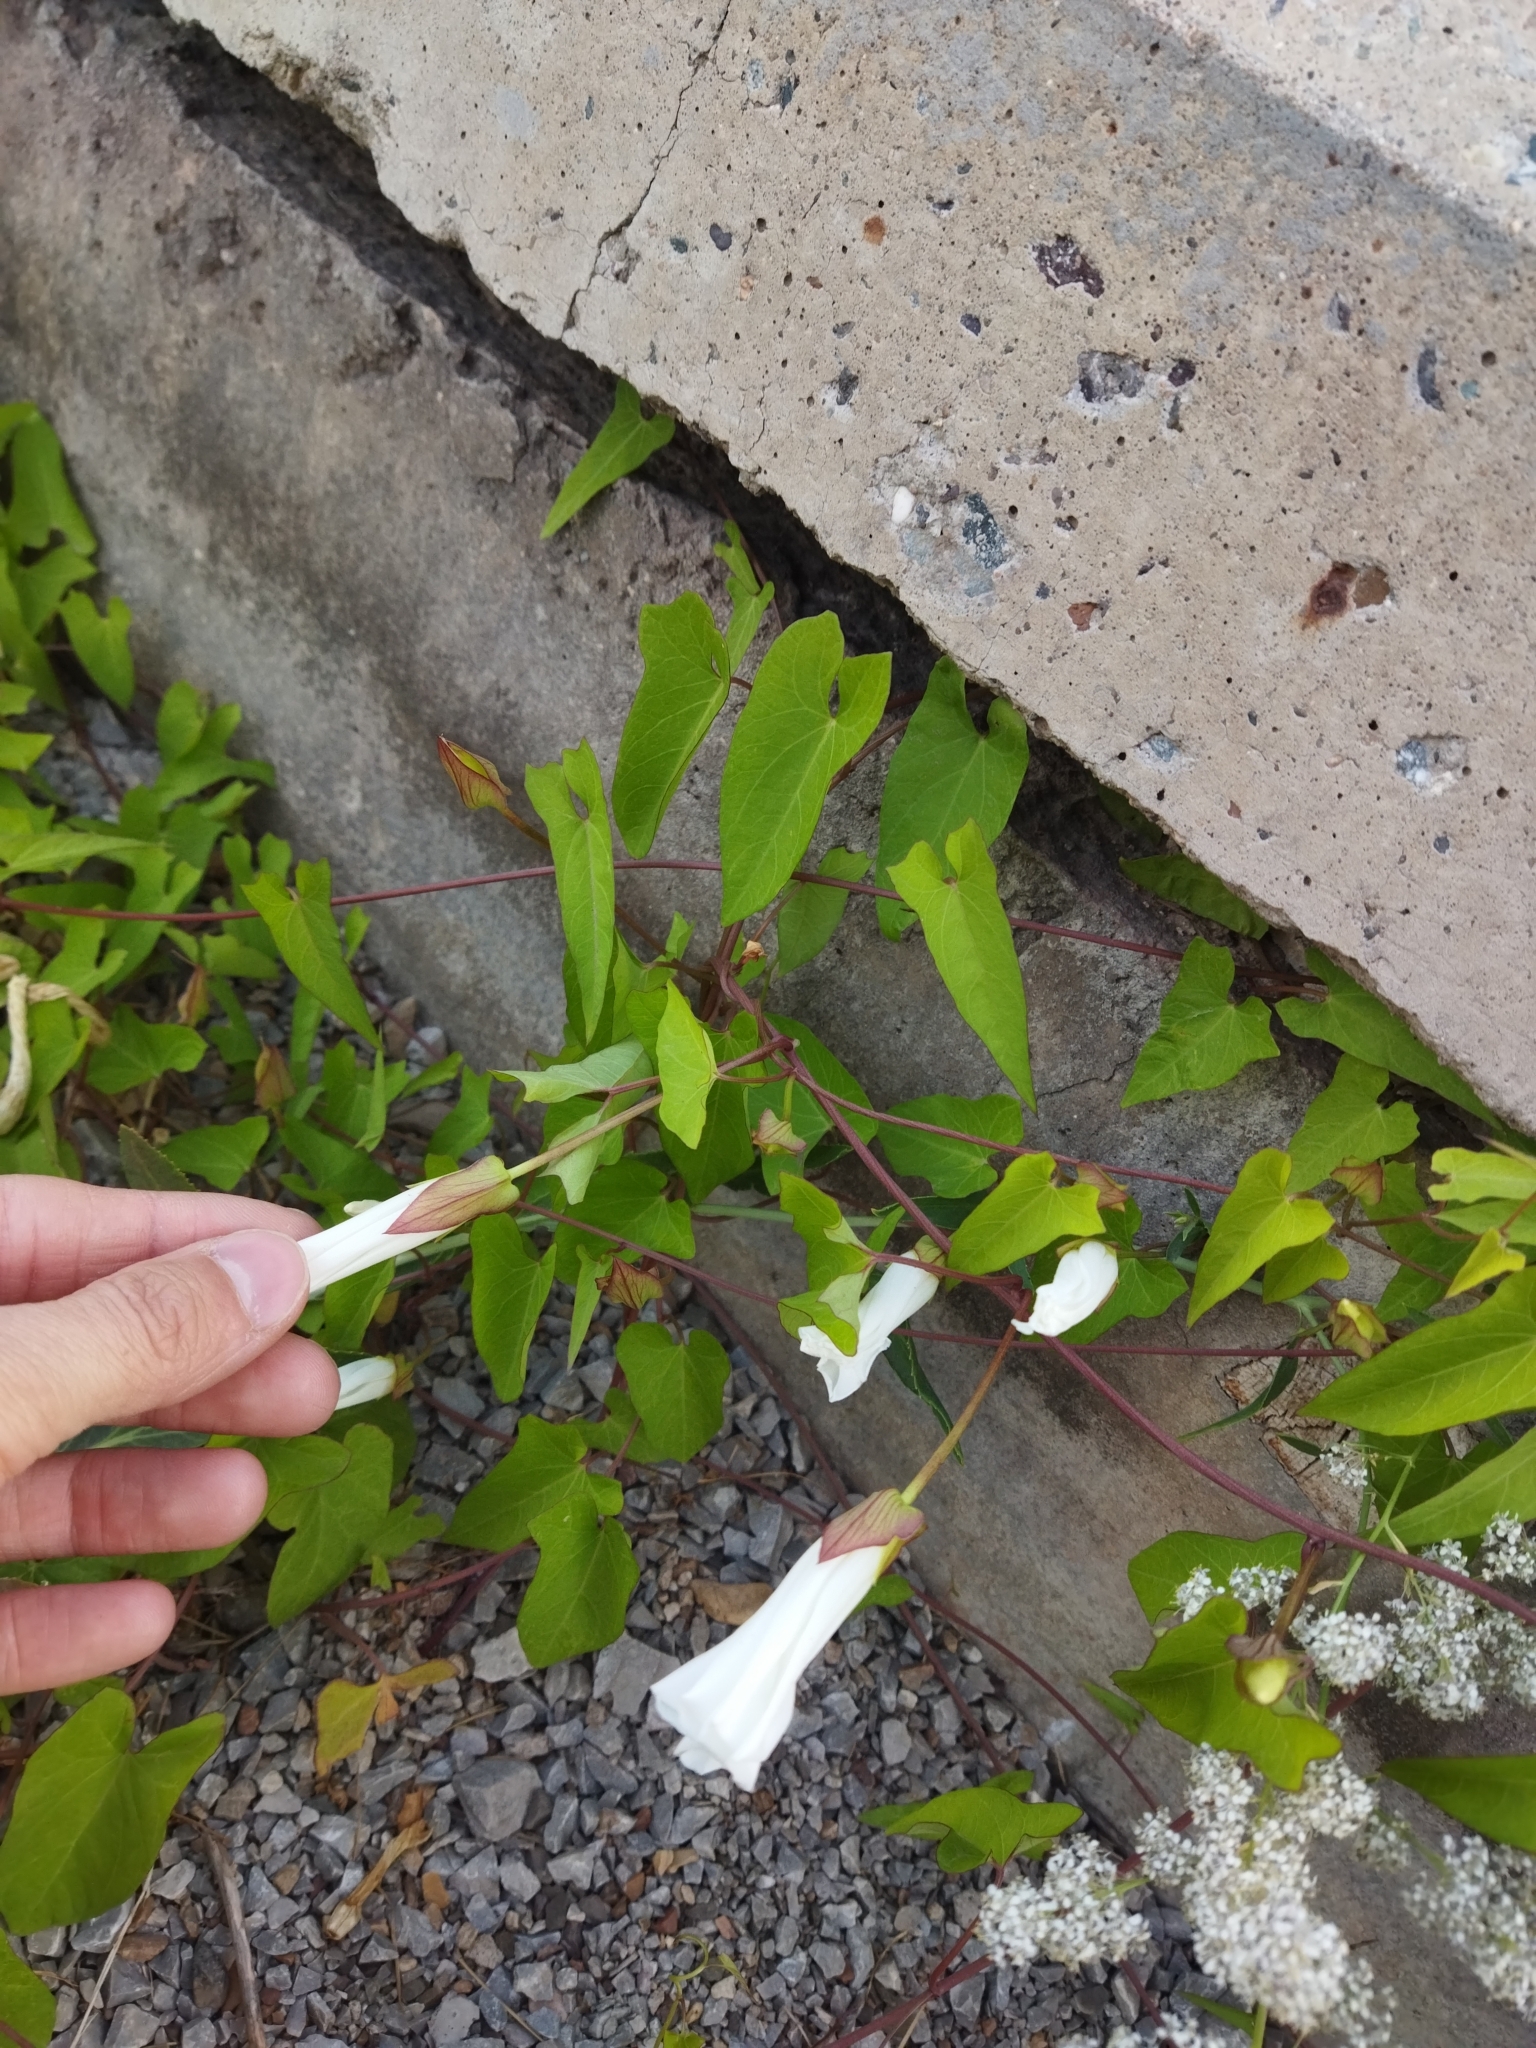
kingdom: Plantae
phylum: Tracheophyta
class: Magnoliopsida
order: Solanales
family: Convolvulaceae
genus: Calystegia
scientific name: Calystegia sepium
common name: Hedge bindweed
